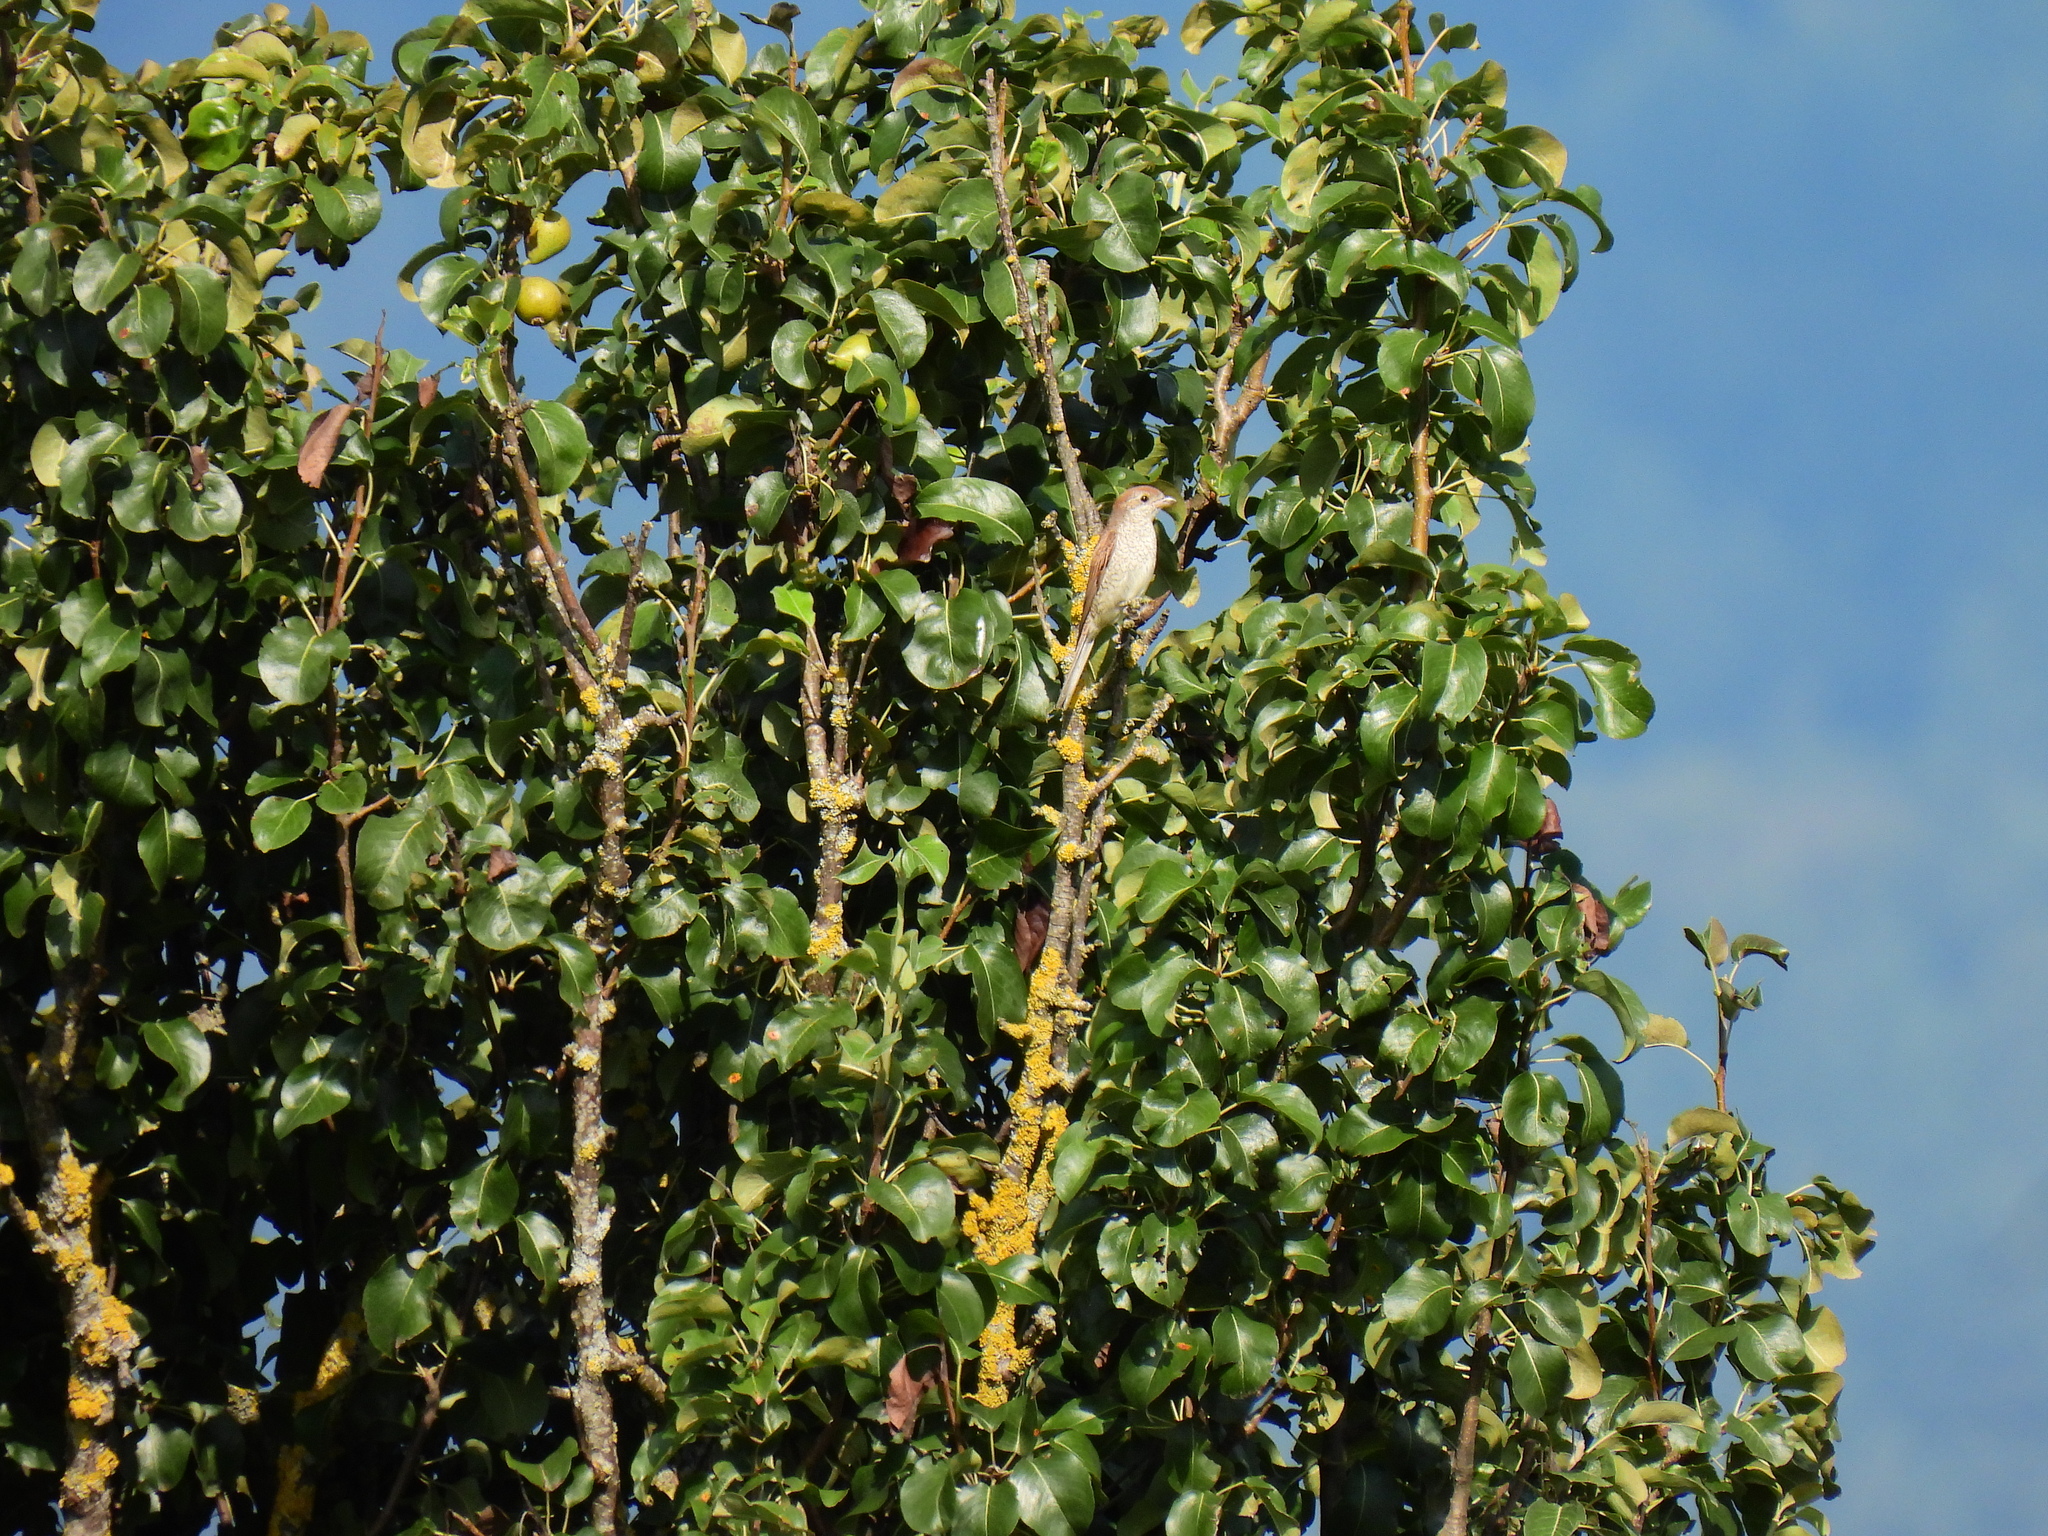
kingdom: Animalia
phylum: Chordata
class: Aves
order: Passeriformes
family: Laniidae
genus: Lanius
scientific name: Lanius collurio
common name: Red-backed shrike
